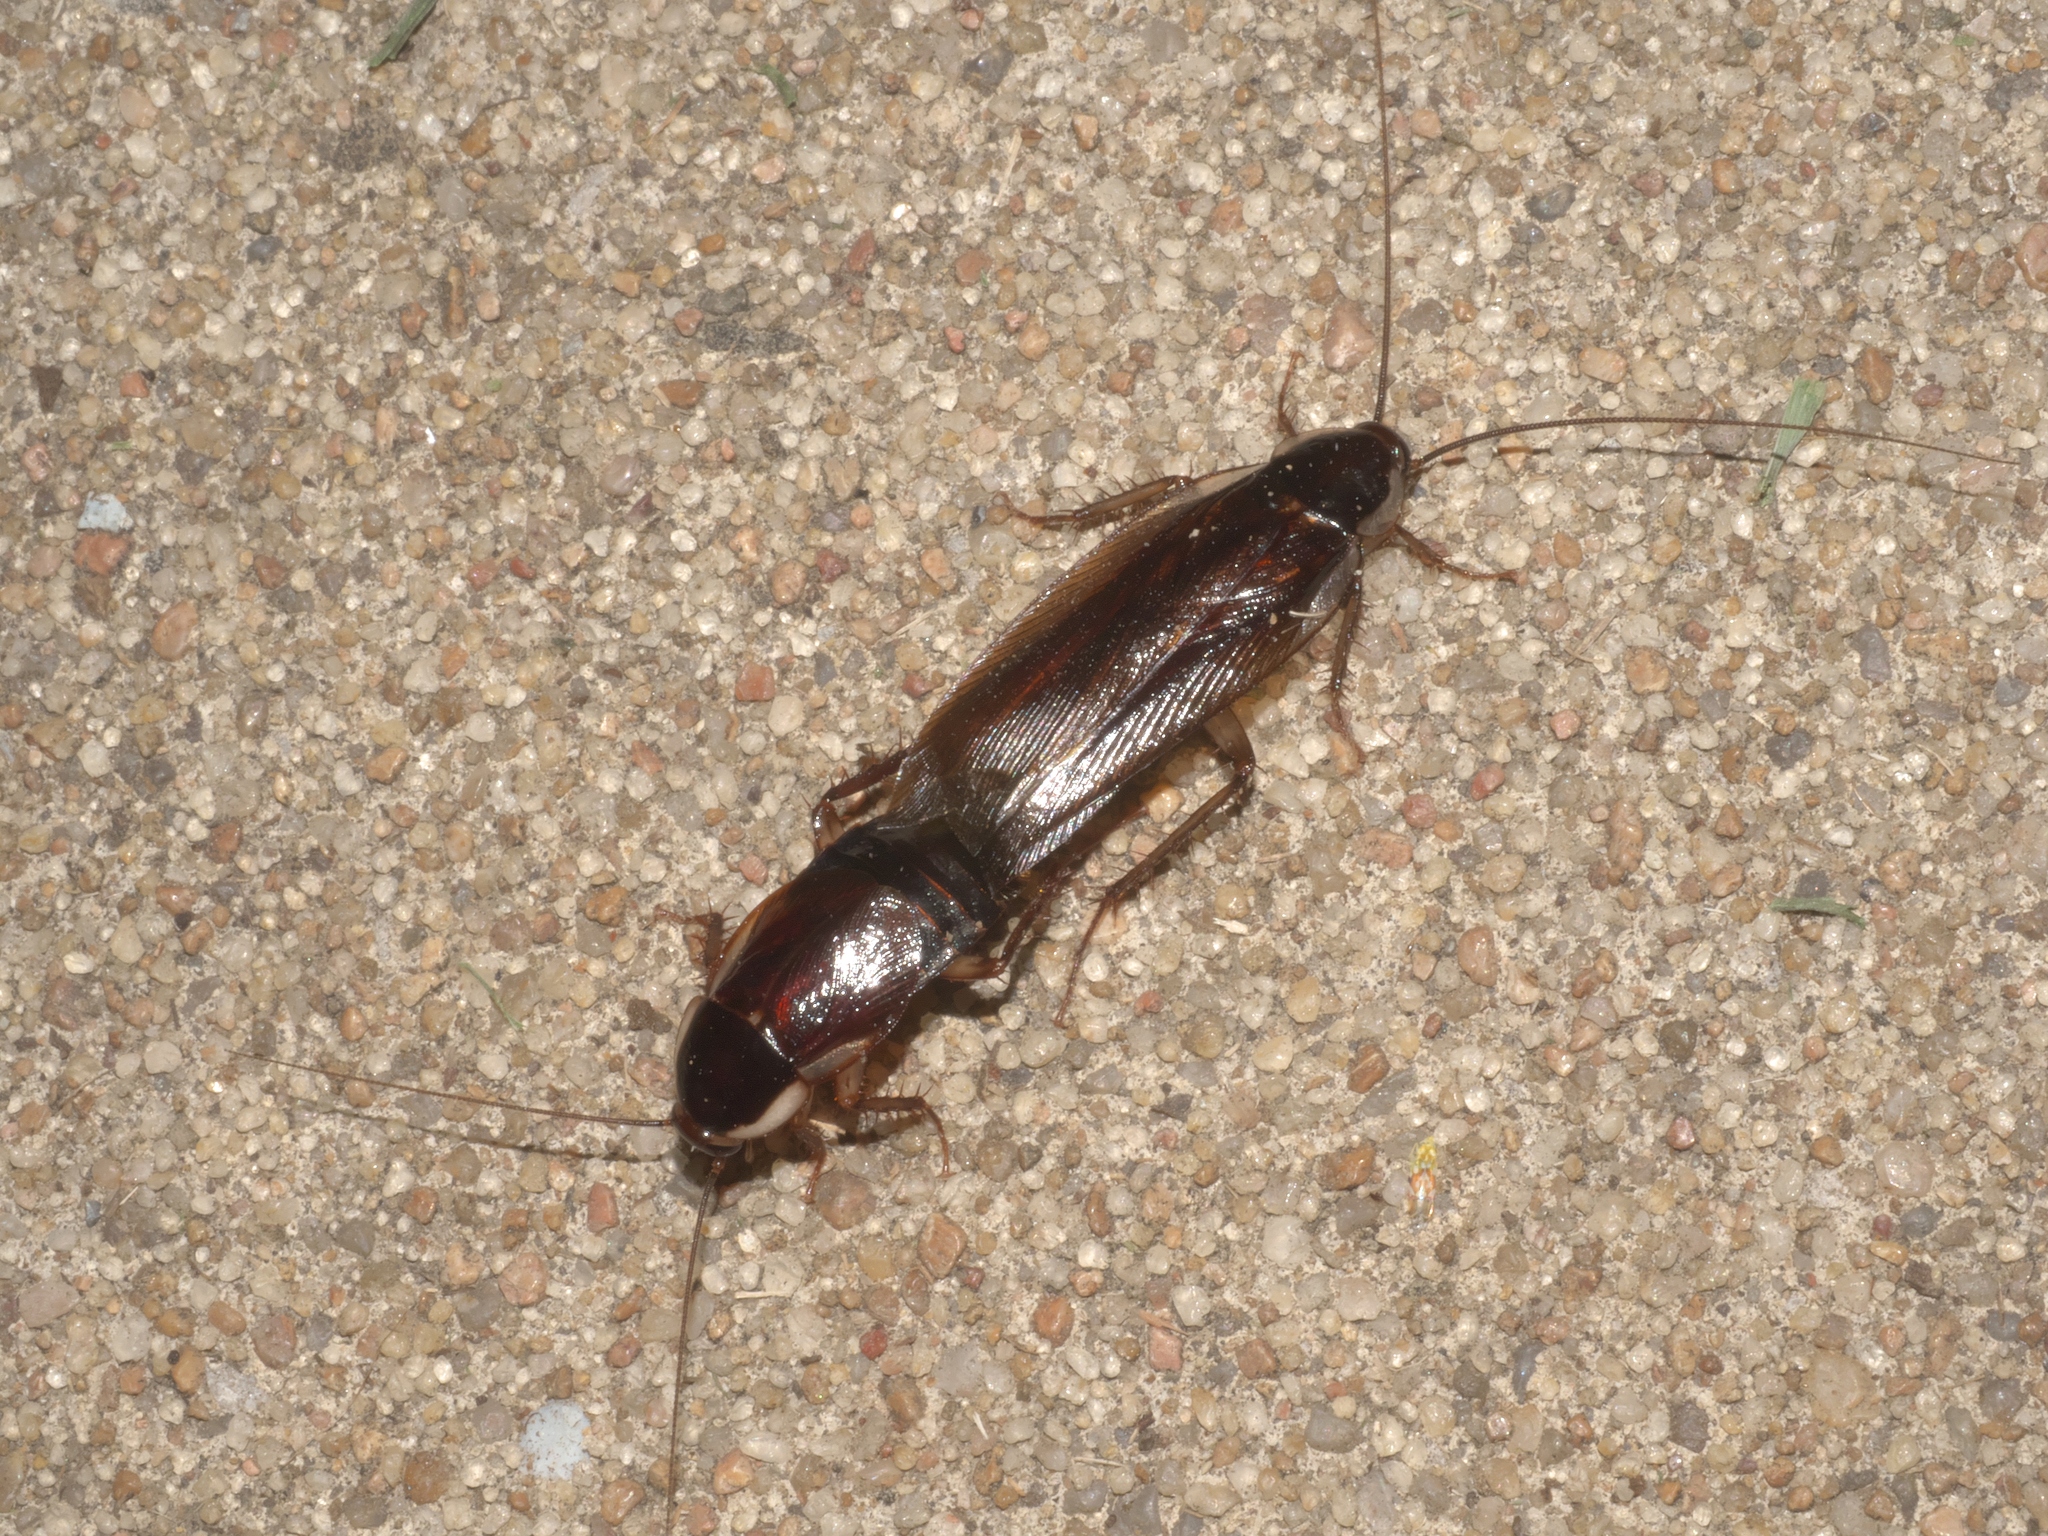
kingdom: Animalia
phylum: Arthropoda
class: Insecta
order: Blattodea
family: Ectobiidae
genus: Parcoblatta
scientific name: Parcoblatta pennsylvanica
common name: Pennsylvanian wood cockroach
